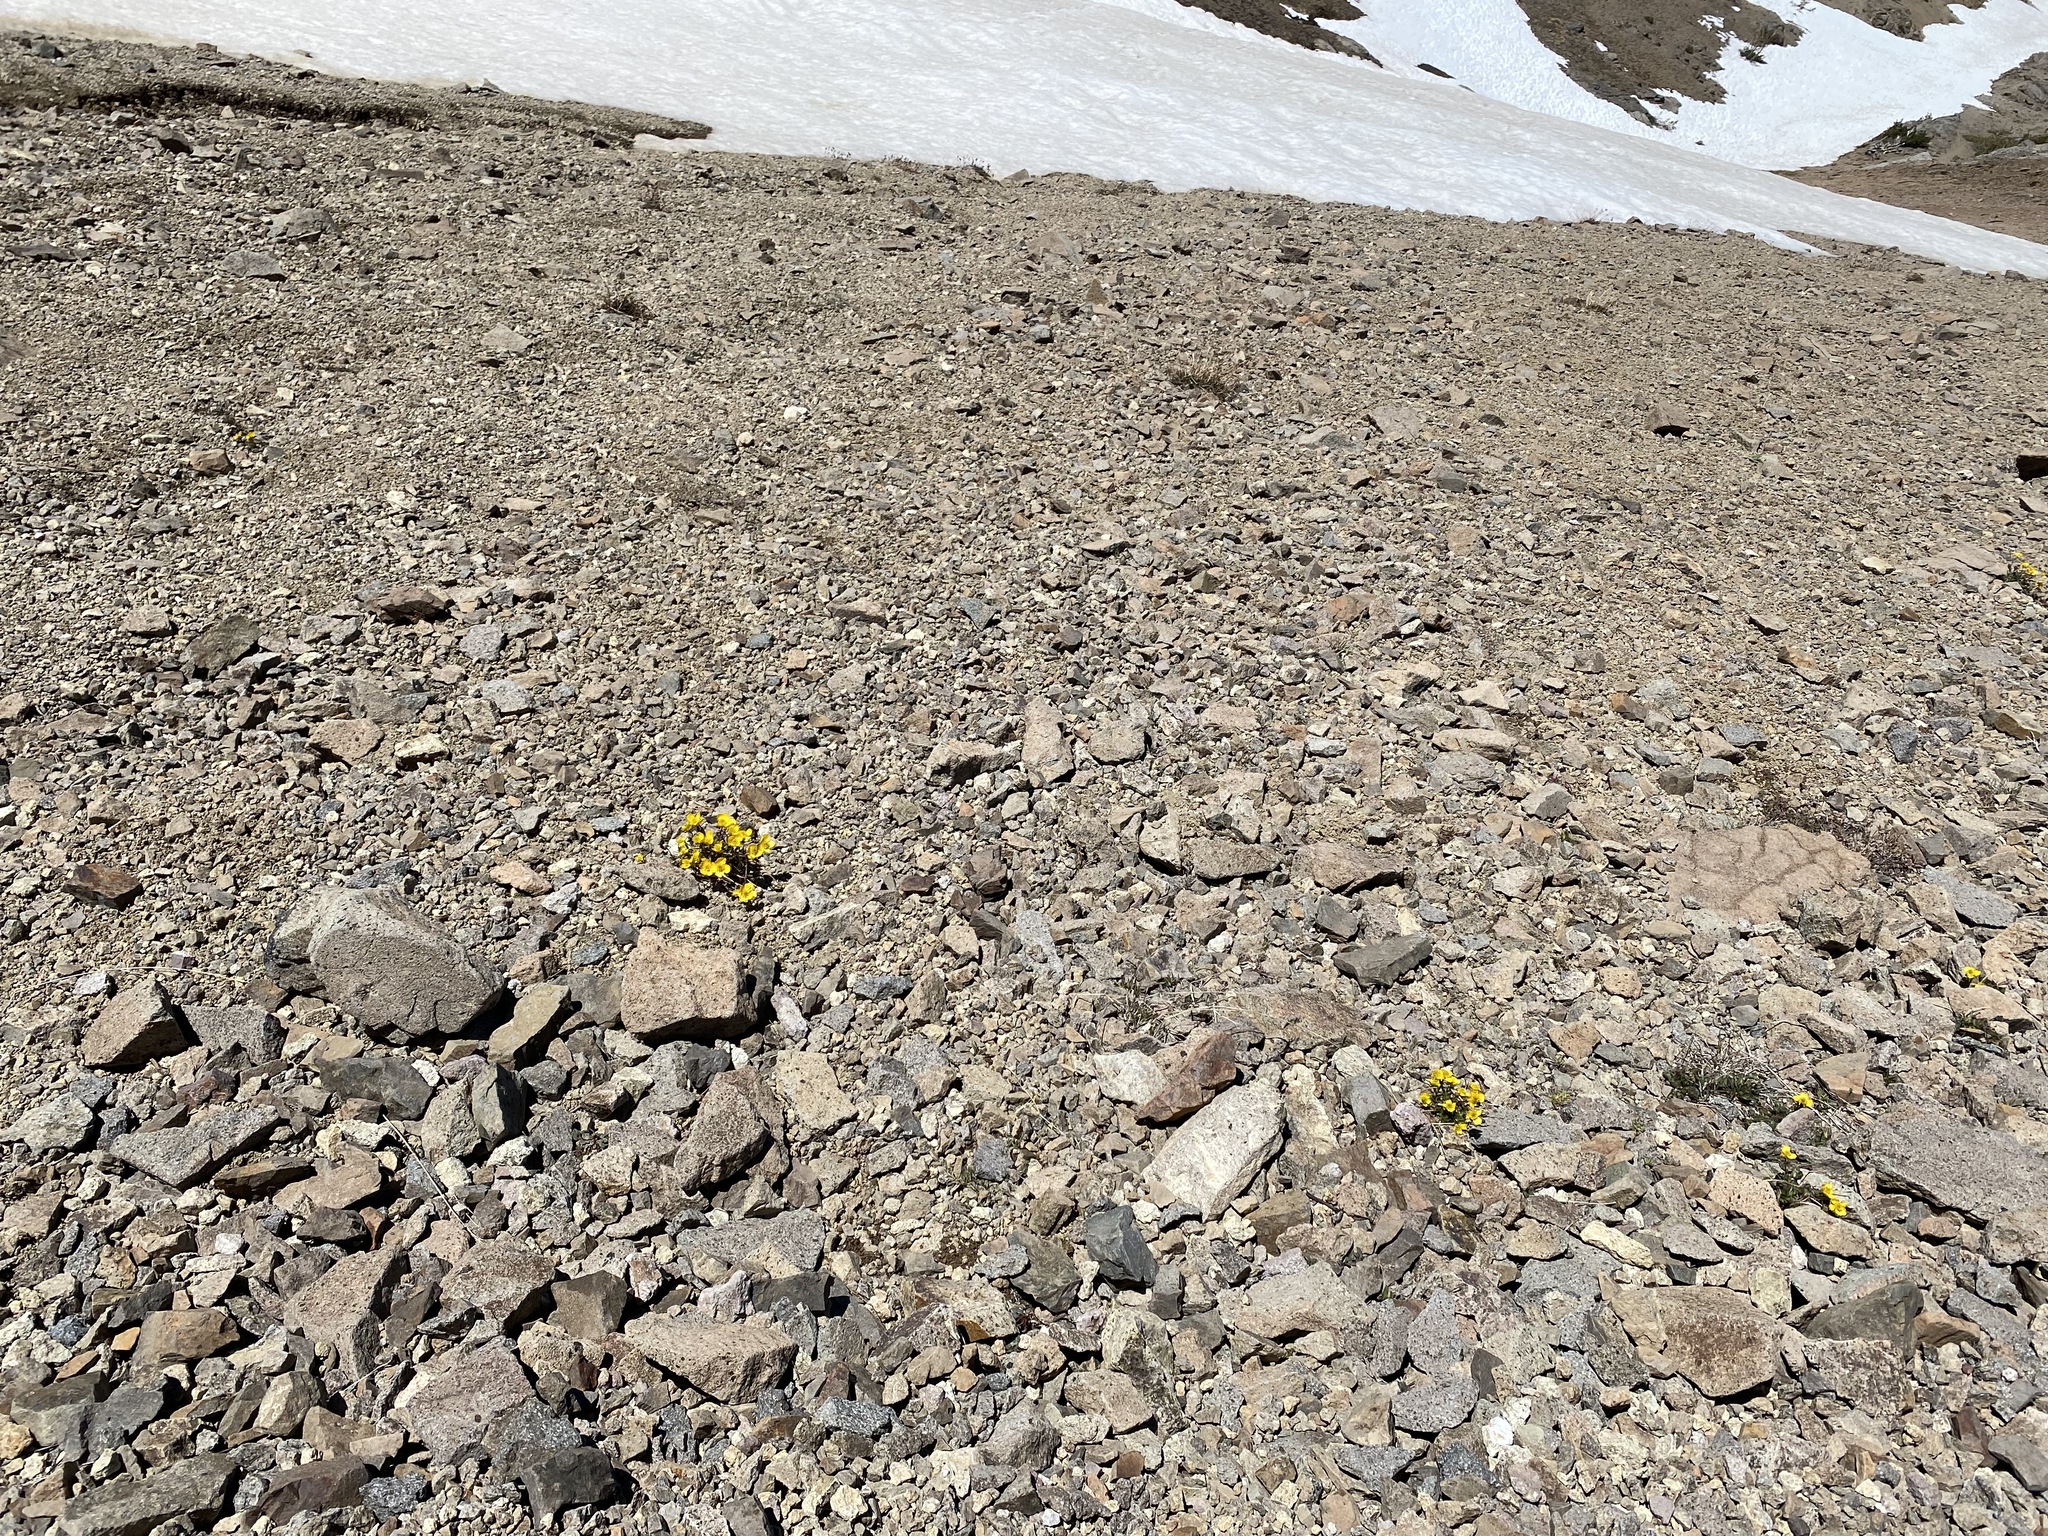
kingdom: Plantae
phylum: Tracheophyta
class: Magnoliopsida
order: Ranunculales
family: Ranunculaceae
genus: Ranunculus
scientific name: Ranunculus eschscholtzii
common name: Eschscholtz's buttercup
